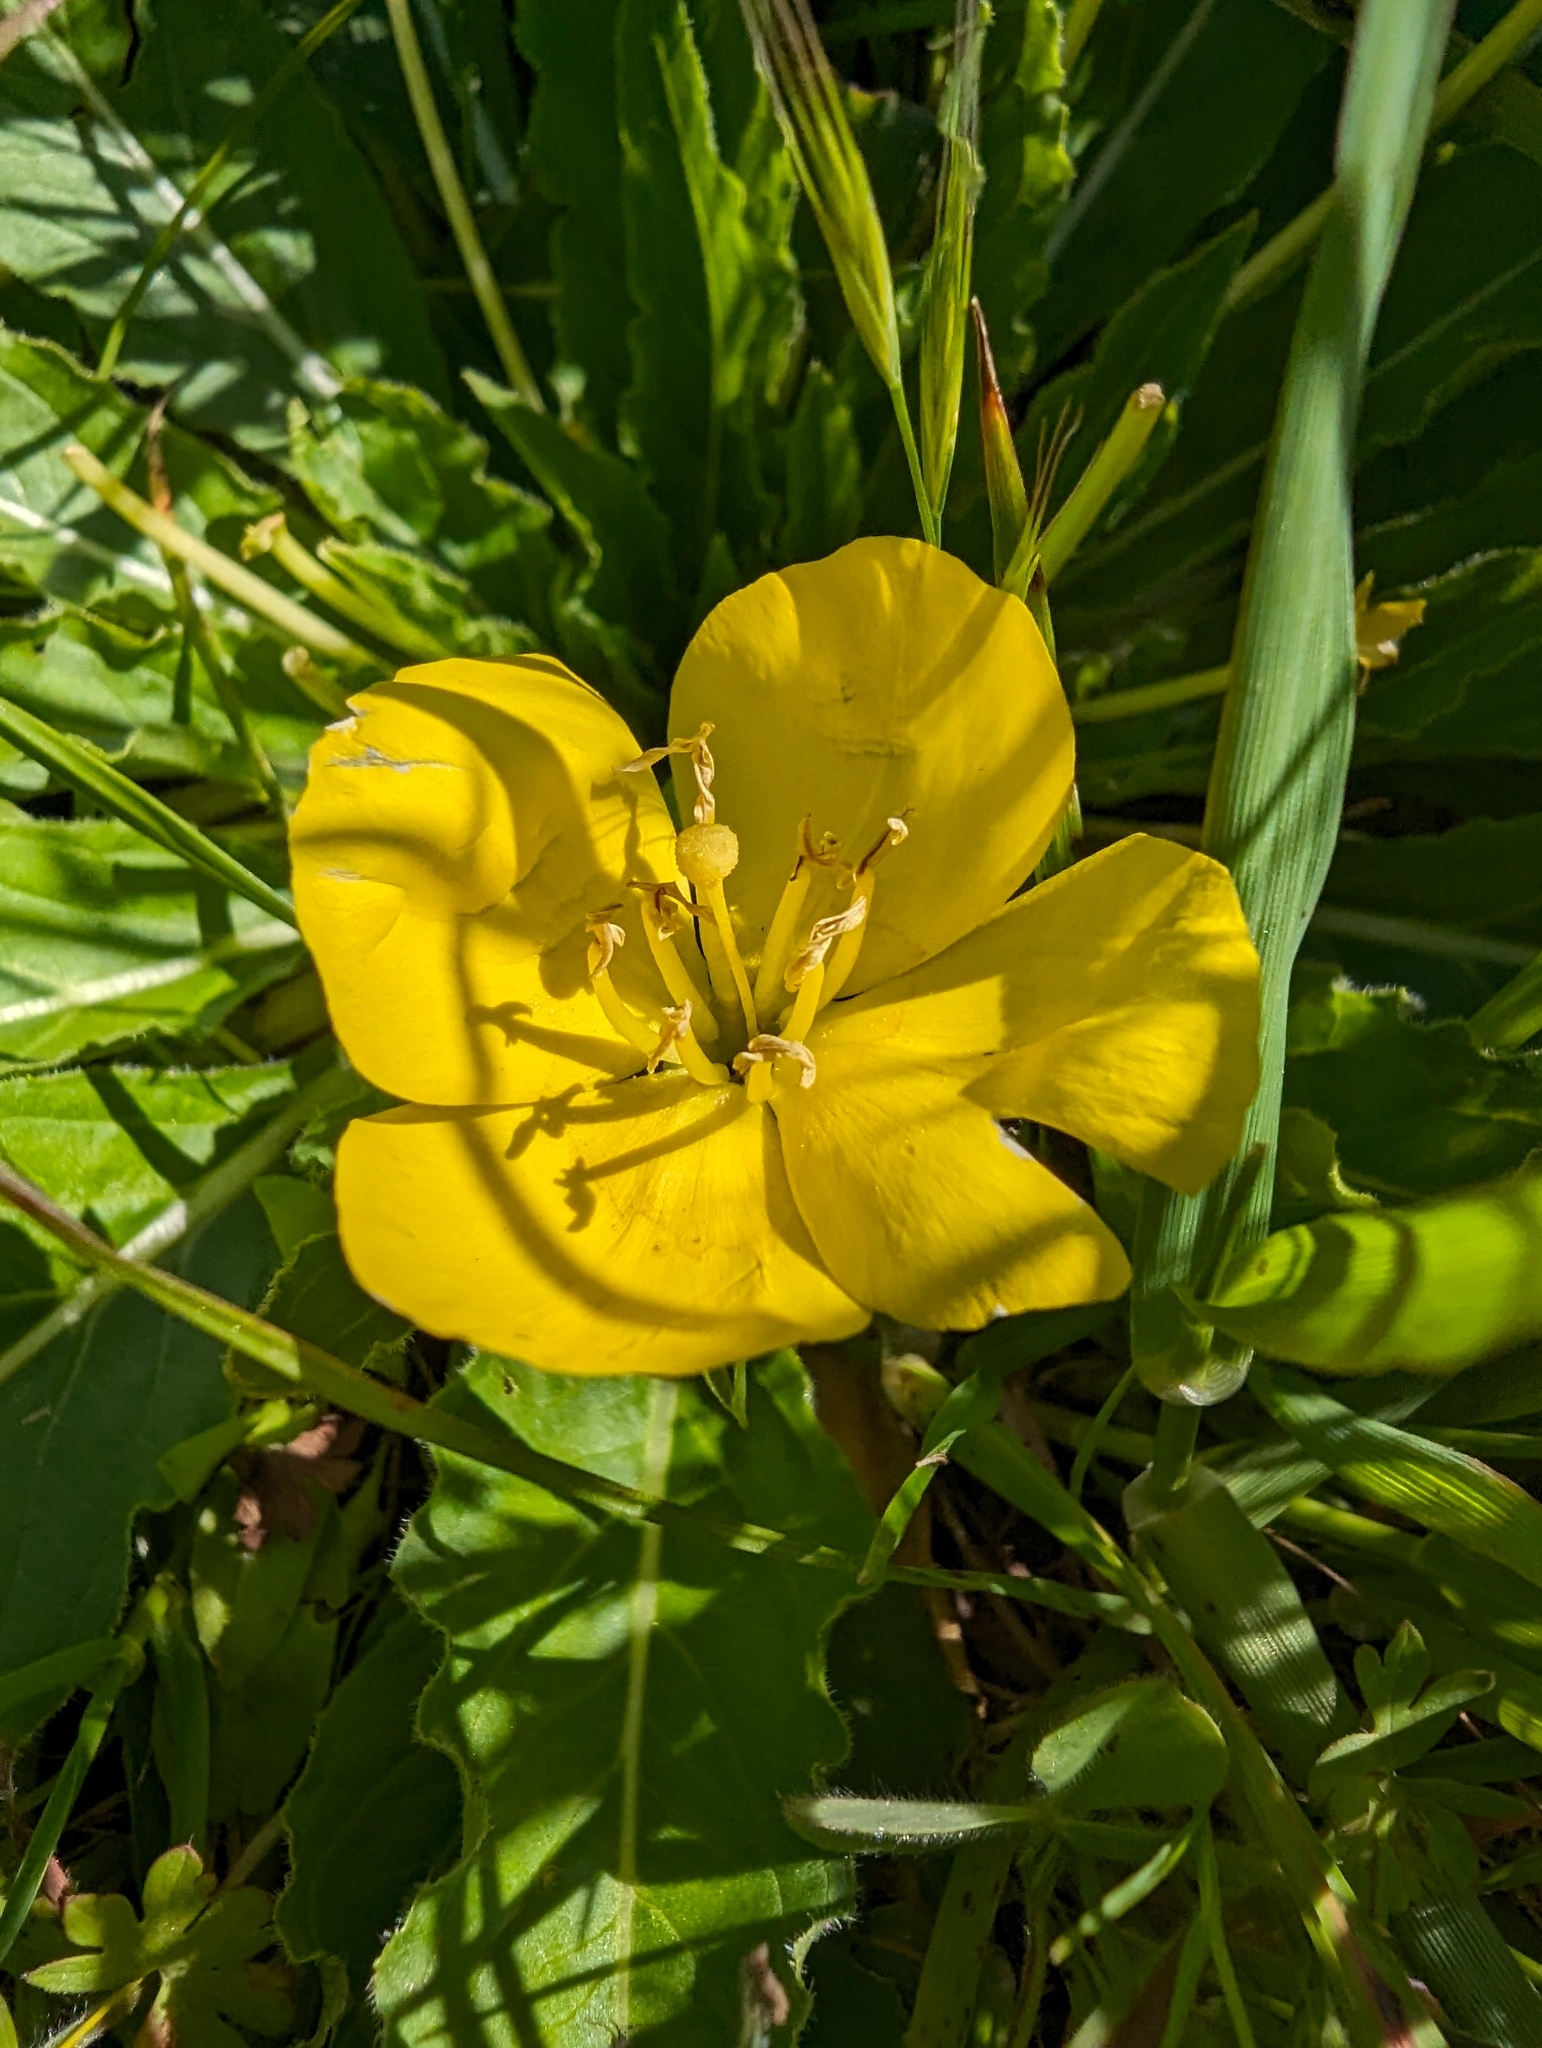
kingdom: Plantae
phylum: Tracheophyta
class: Magnoliopsida
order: Myrtales
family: Onagraceae
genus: Taraxia
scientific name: Taraxia ovata
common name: Goldeneggs
